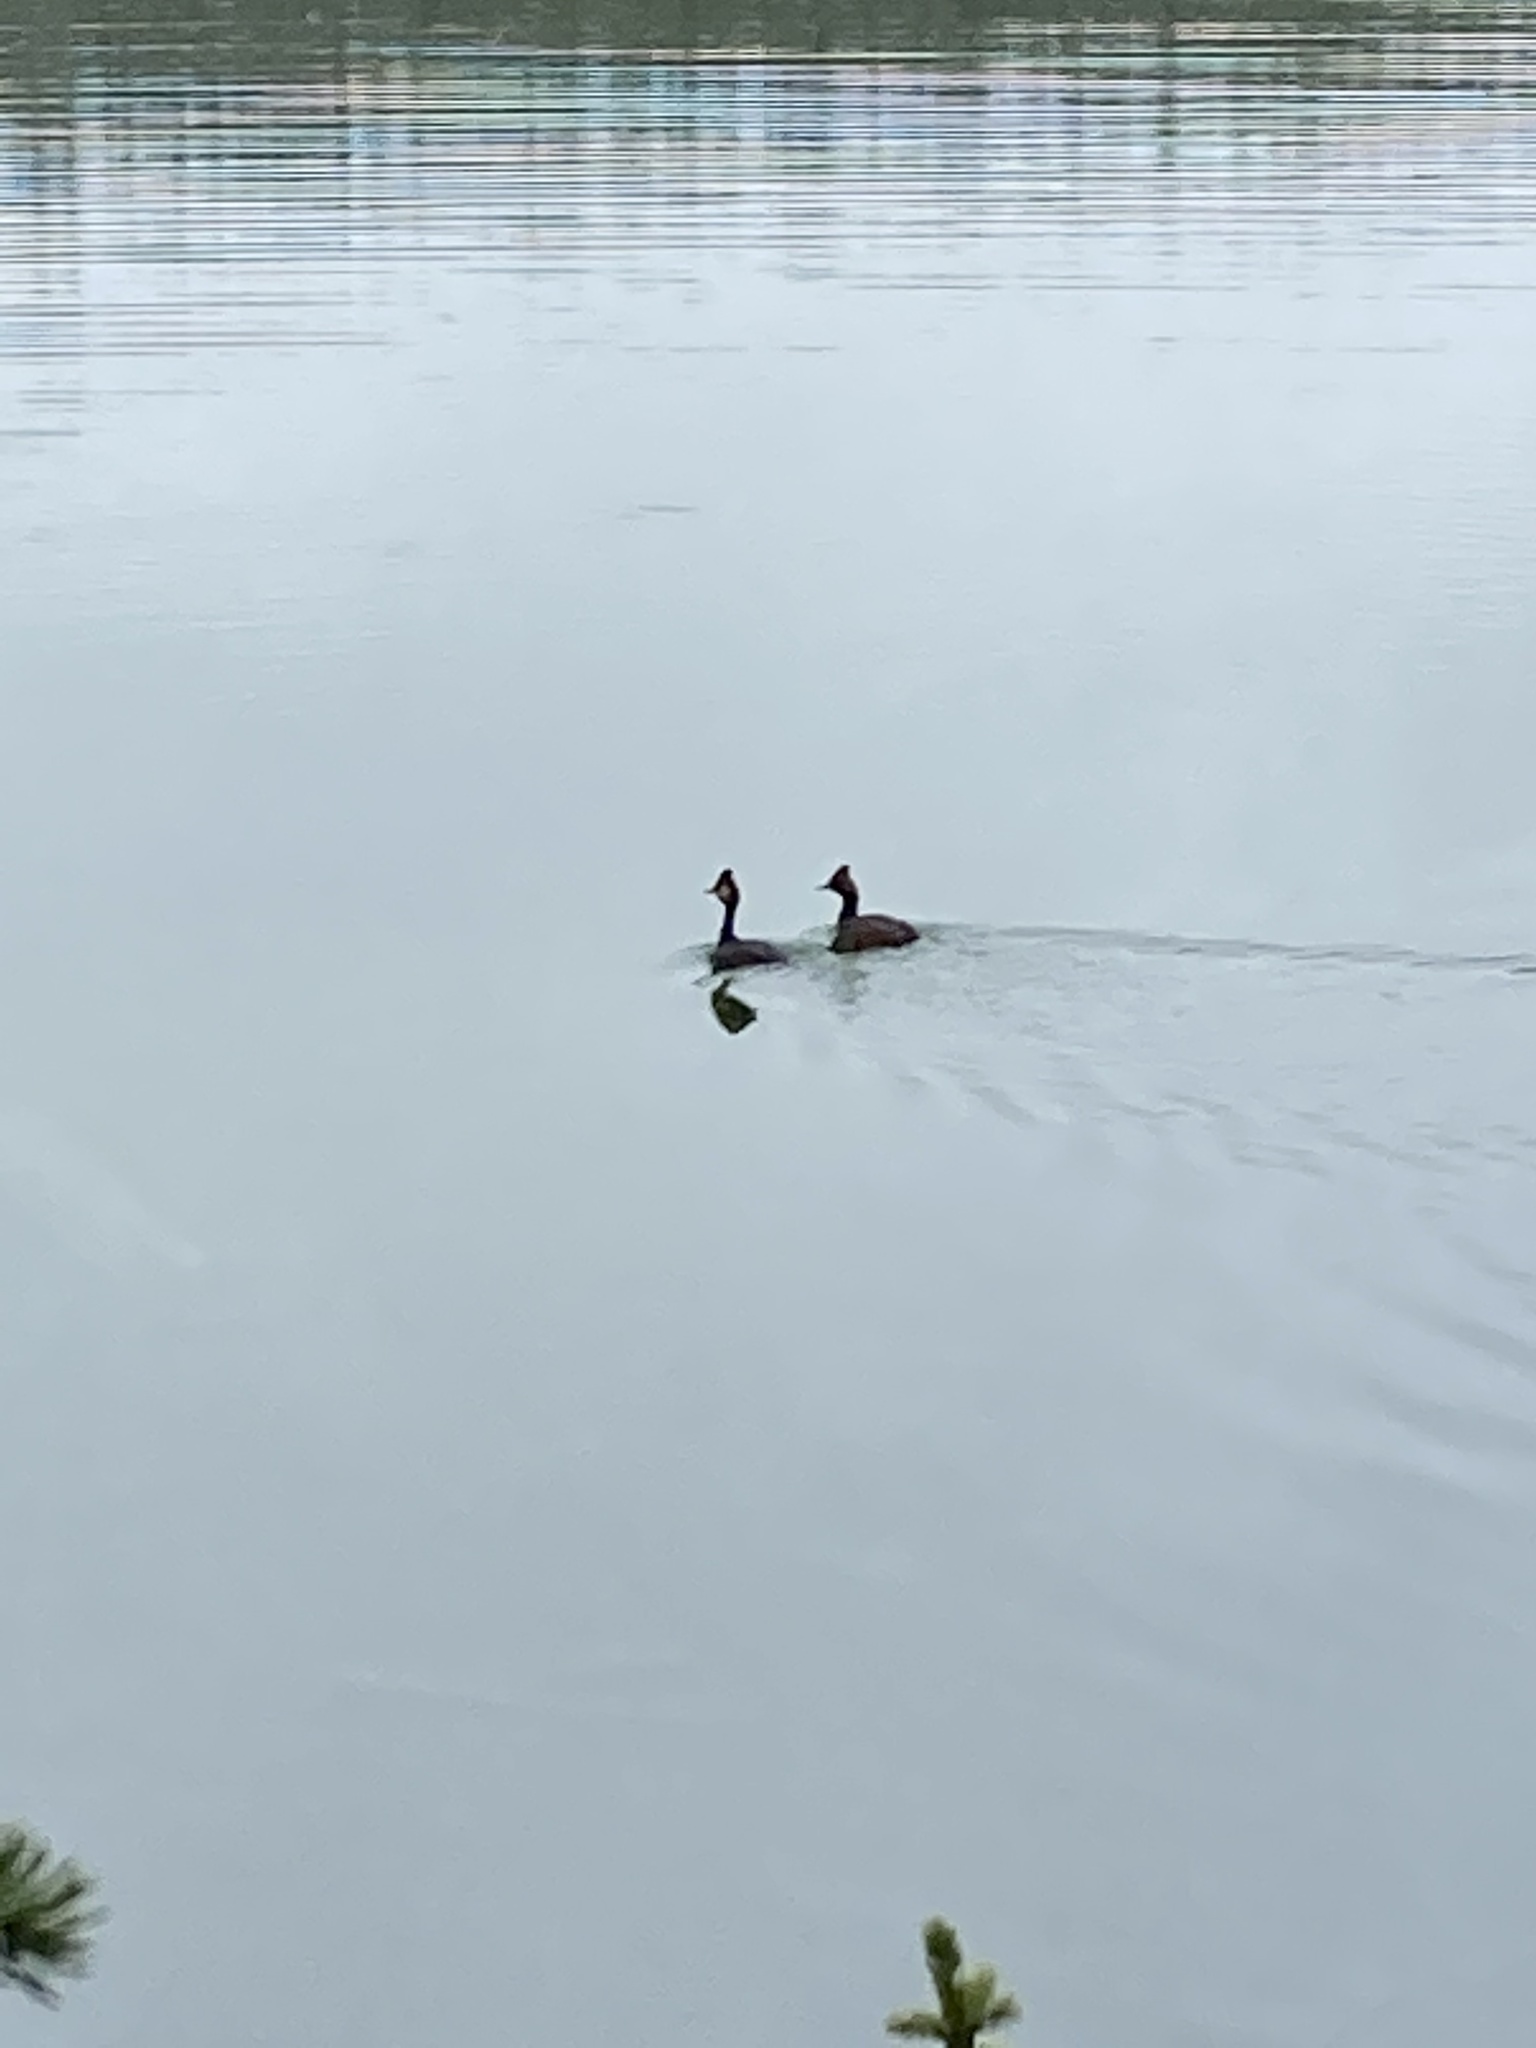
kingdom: Animalia
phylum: Chordata
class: Aves
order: Podicipediformes
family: Podicipedidae
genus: Podiceps
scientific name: Podiceps nigricollis
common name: Black-necked grebe
